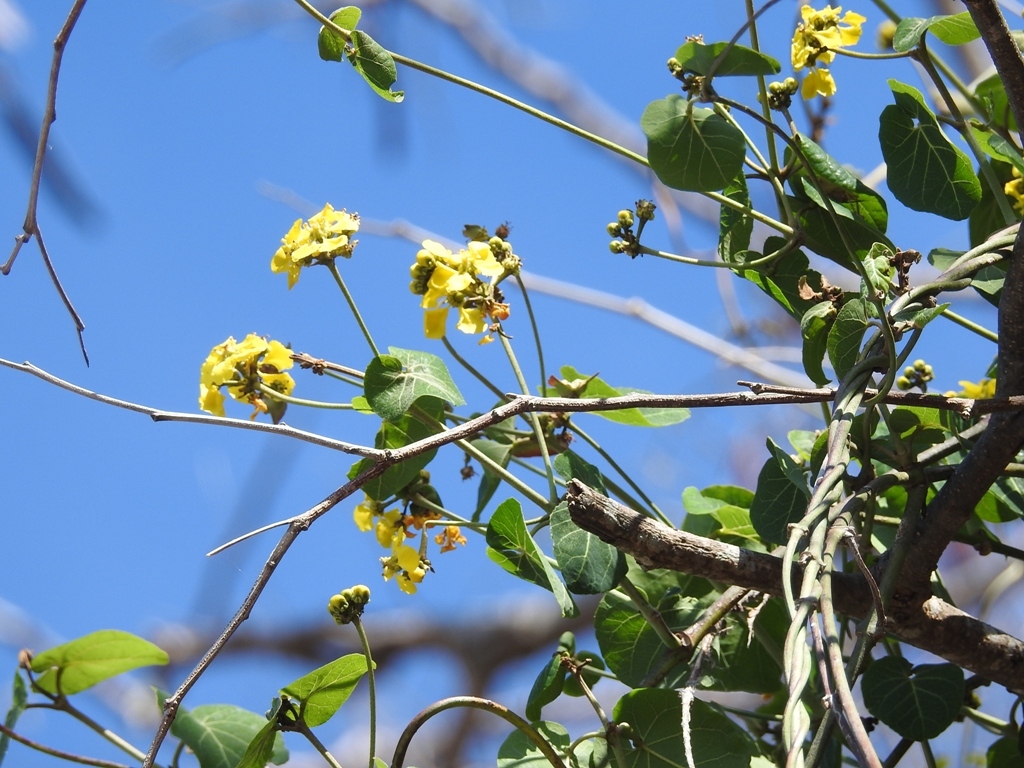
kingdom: Plantae
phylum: Tracheophyta
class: Magnoliopsida
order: Malpighiales
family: Malpighiaceae
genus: Stigmaphyllon
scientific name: Stigmaphyllon dichotomum
